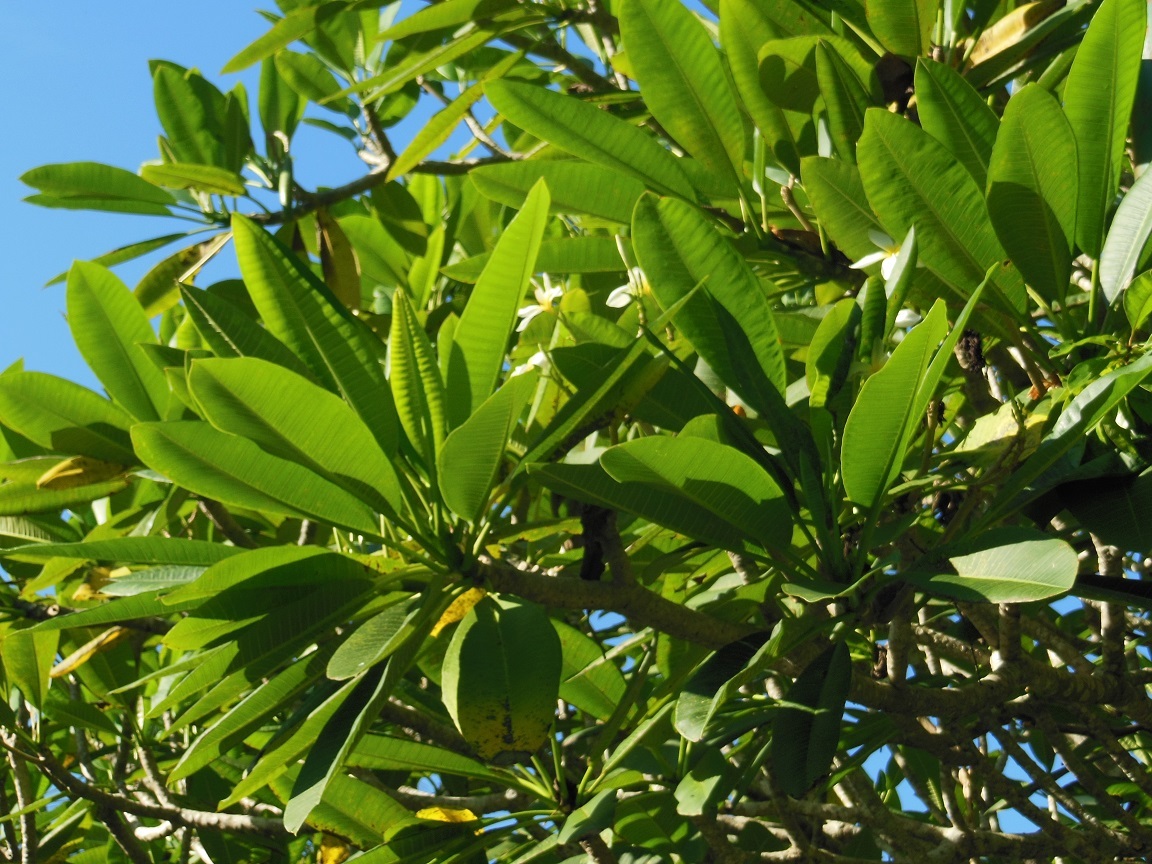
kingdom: Plantae
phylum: Tracheophyta
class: Magnoliopsida
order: Gentianales
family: Apocynaceae
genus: Plumeria
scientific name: Plumeria rubra
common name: Pagoda-tree
